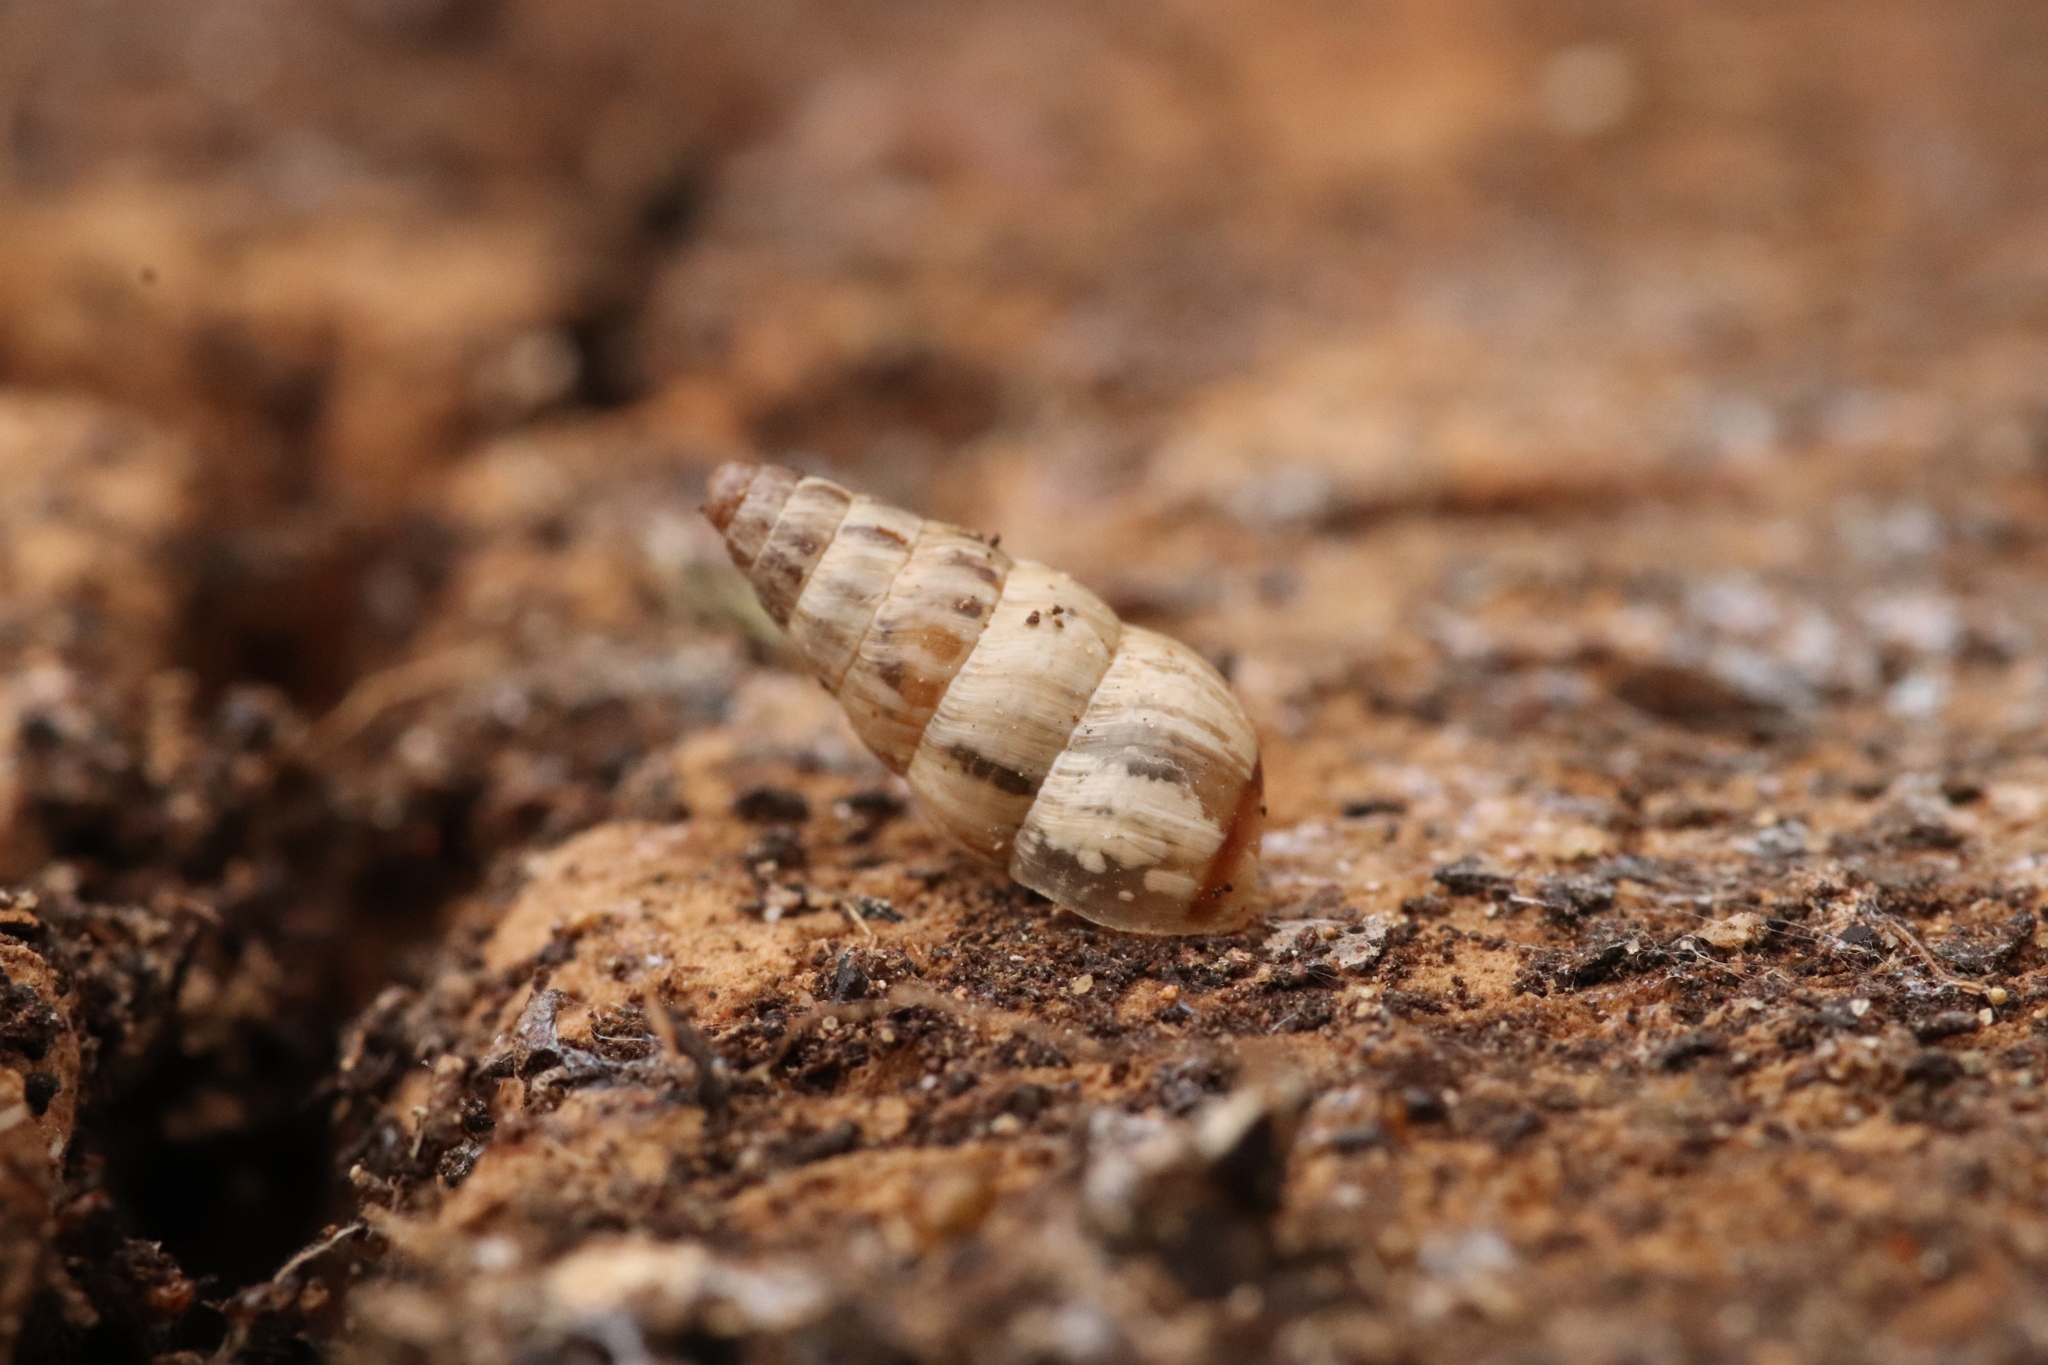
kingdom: Animalia
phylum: Mollusca
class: Gastropoda
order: Stylommatophora
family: Geomitridae
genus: Cochlicella
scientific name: Cochlicella acuta
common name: Pointed snail
